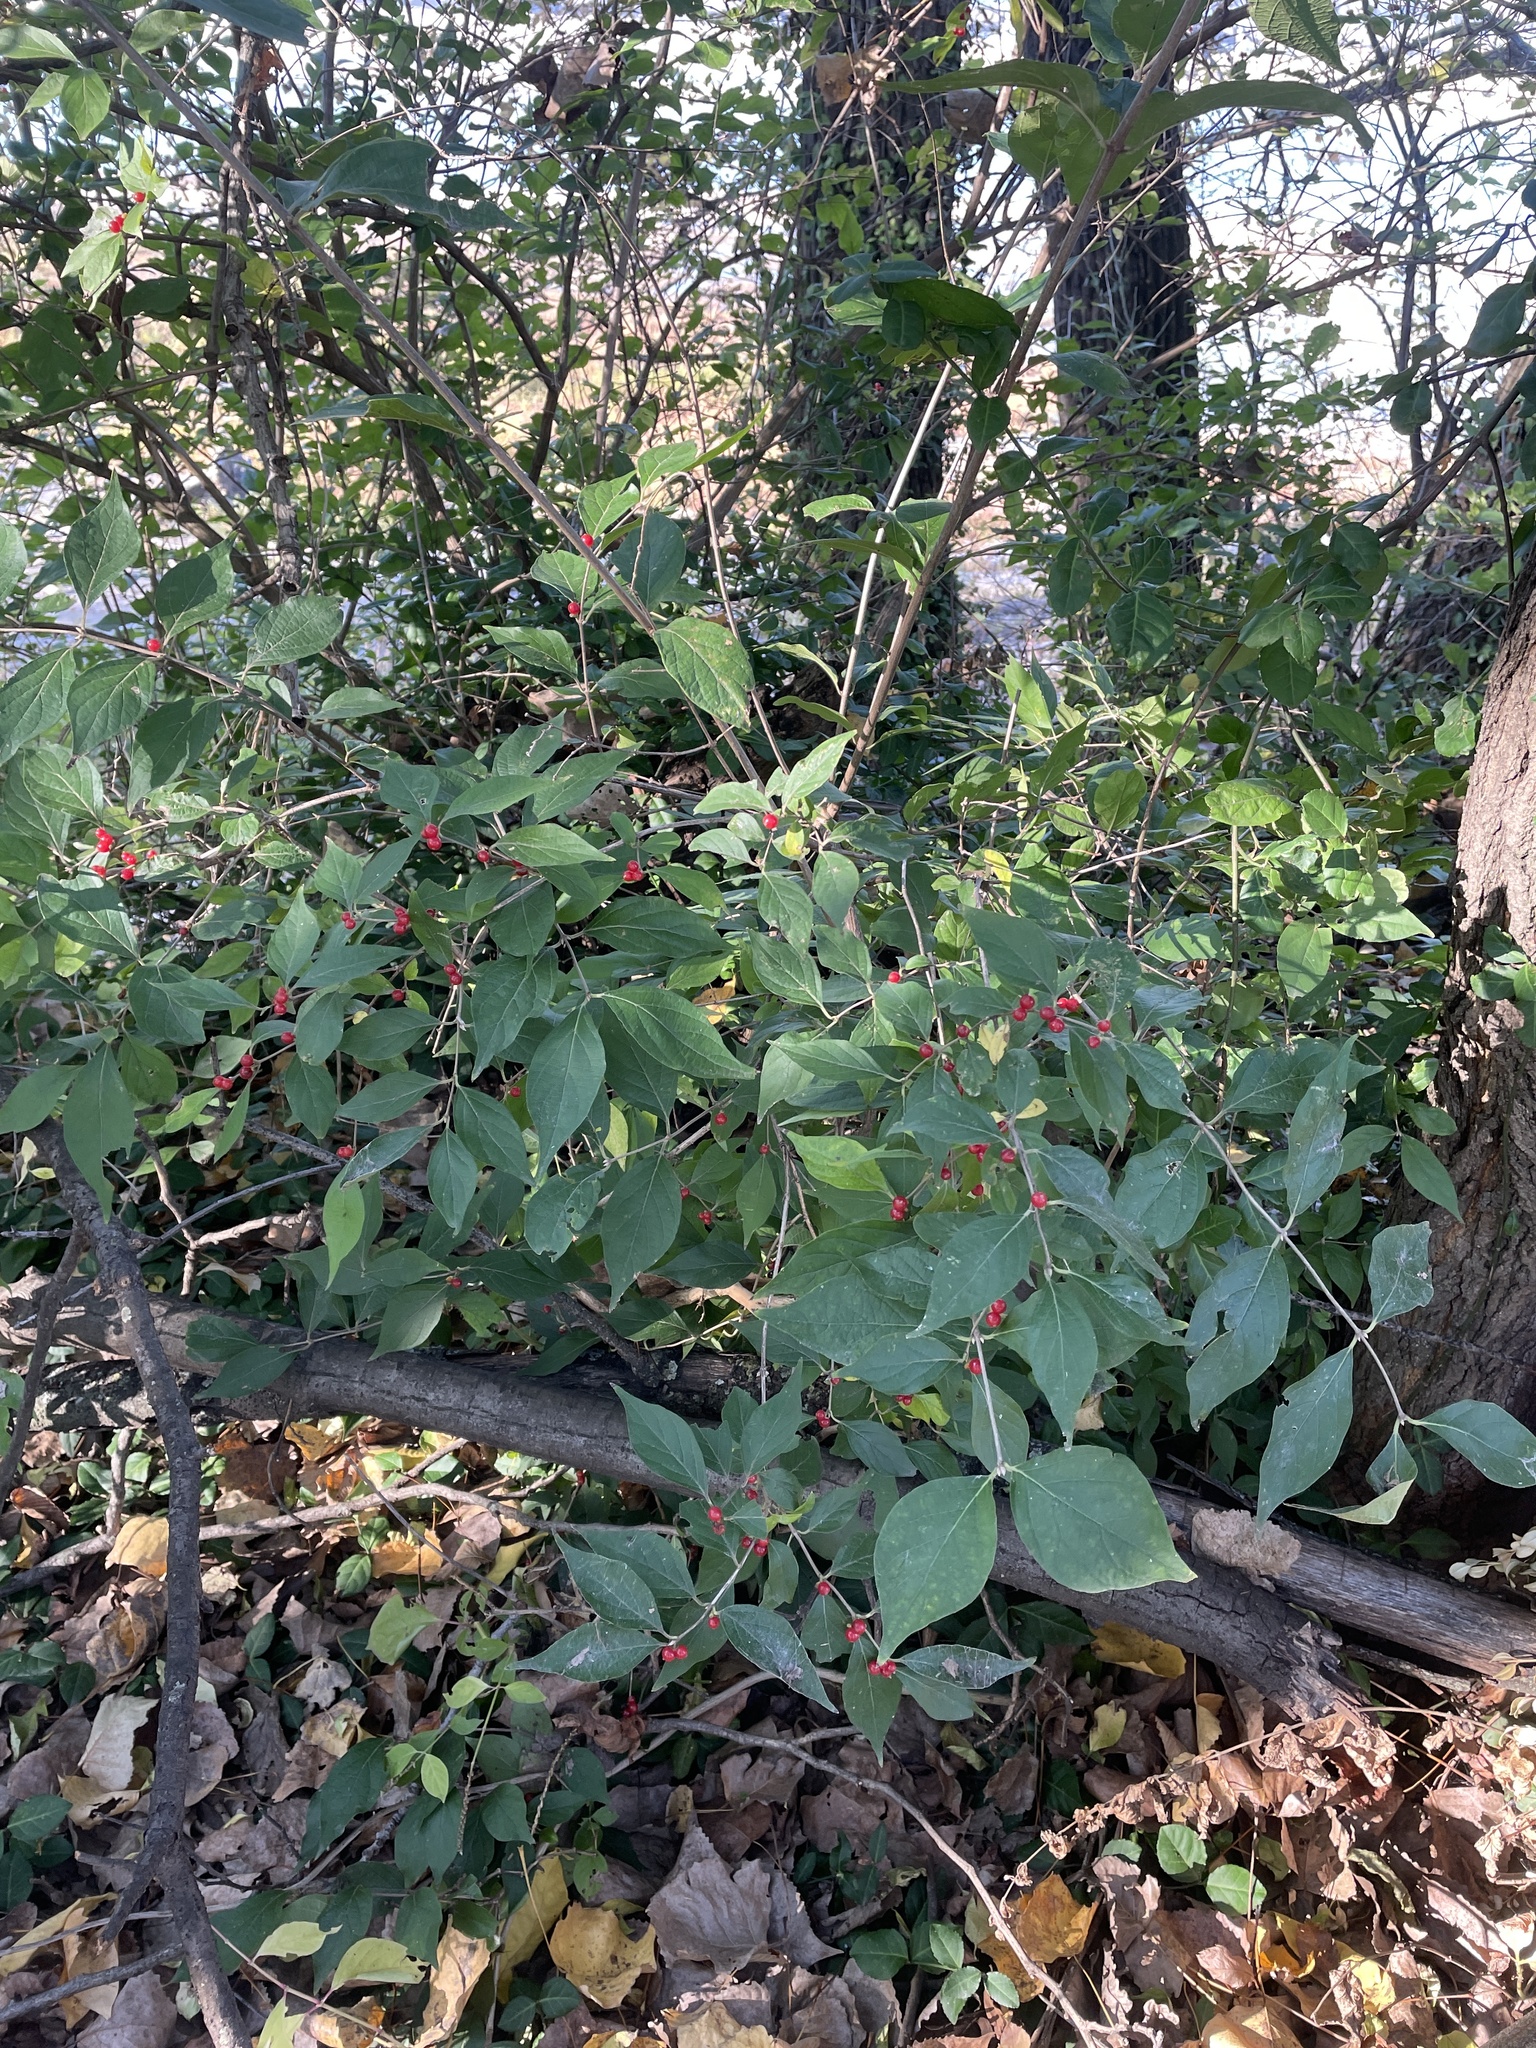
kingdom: Plantae
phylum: Tracheophyta
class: Magnoliopsida
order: Dipsacales
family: Caprifoliaceae
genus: Lonicera
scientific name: Lonicera maackii
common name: Amur honeysuckle
